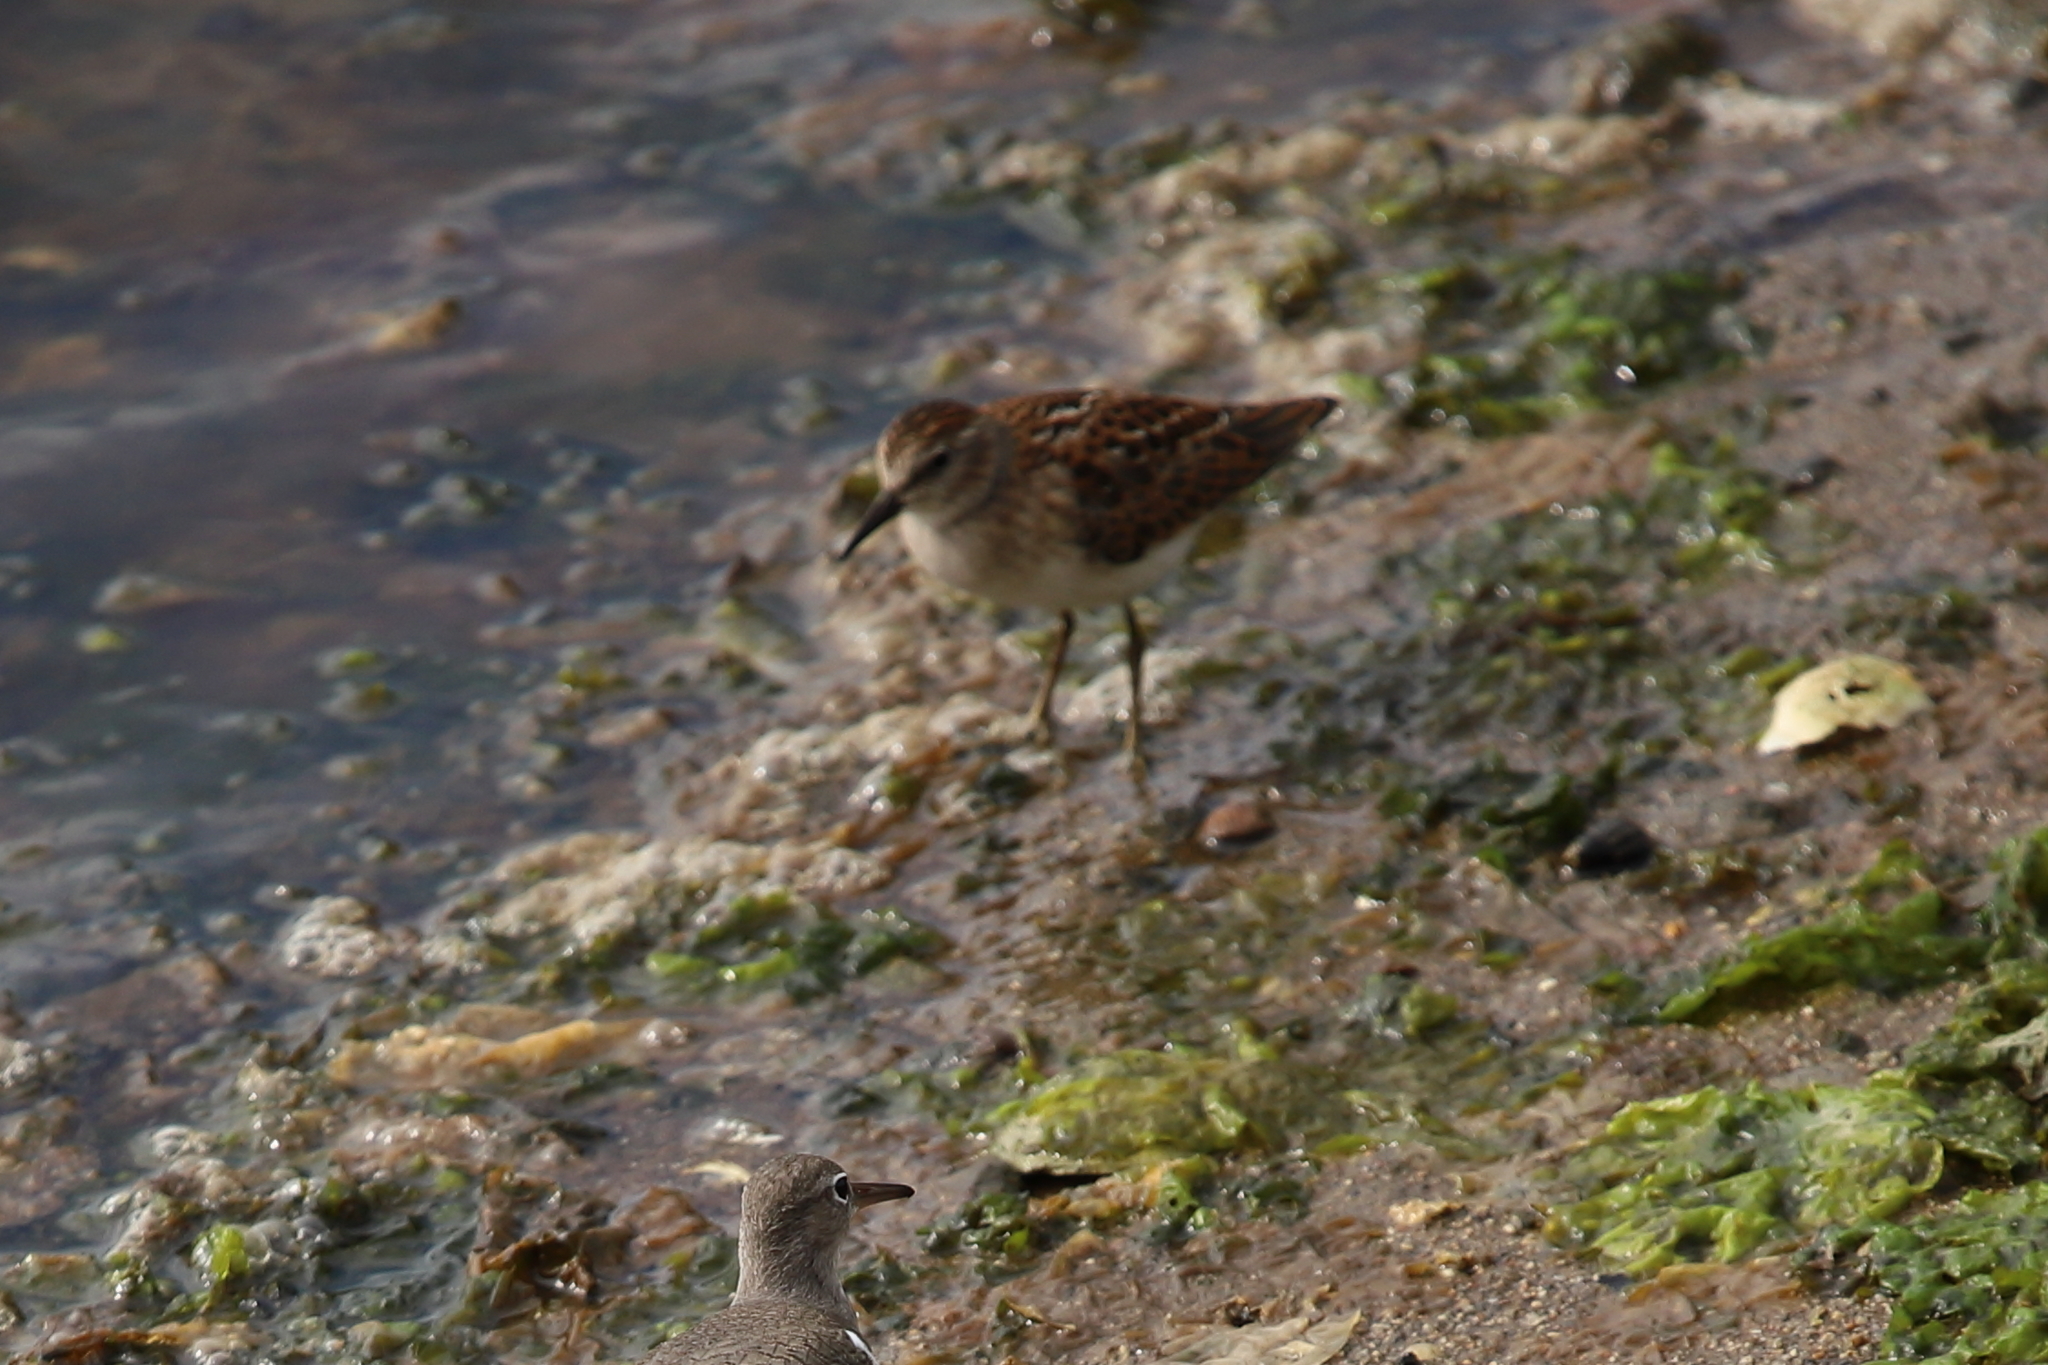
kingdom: Animalia
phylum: Chordata
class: Aves
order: Charadriiformes
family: Scolopacidae
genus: Calidris
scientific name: Calidris minutilla
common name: Least sandpiper
